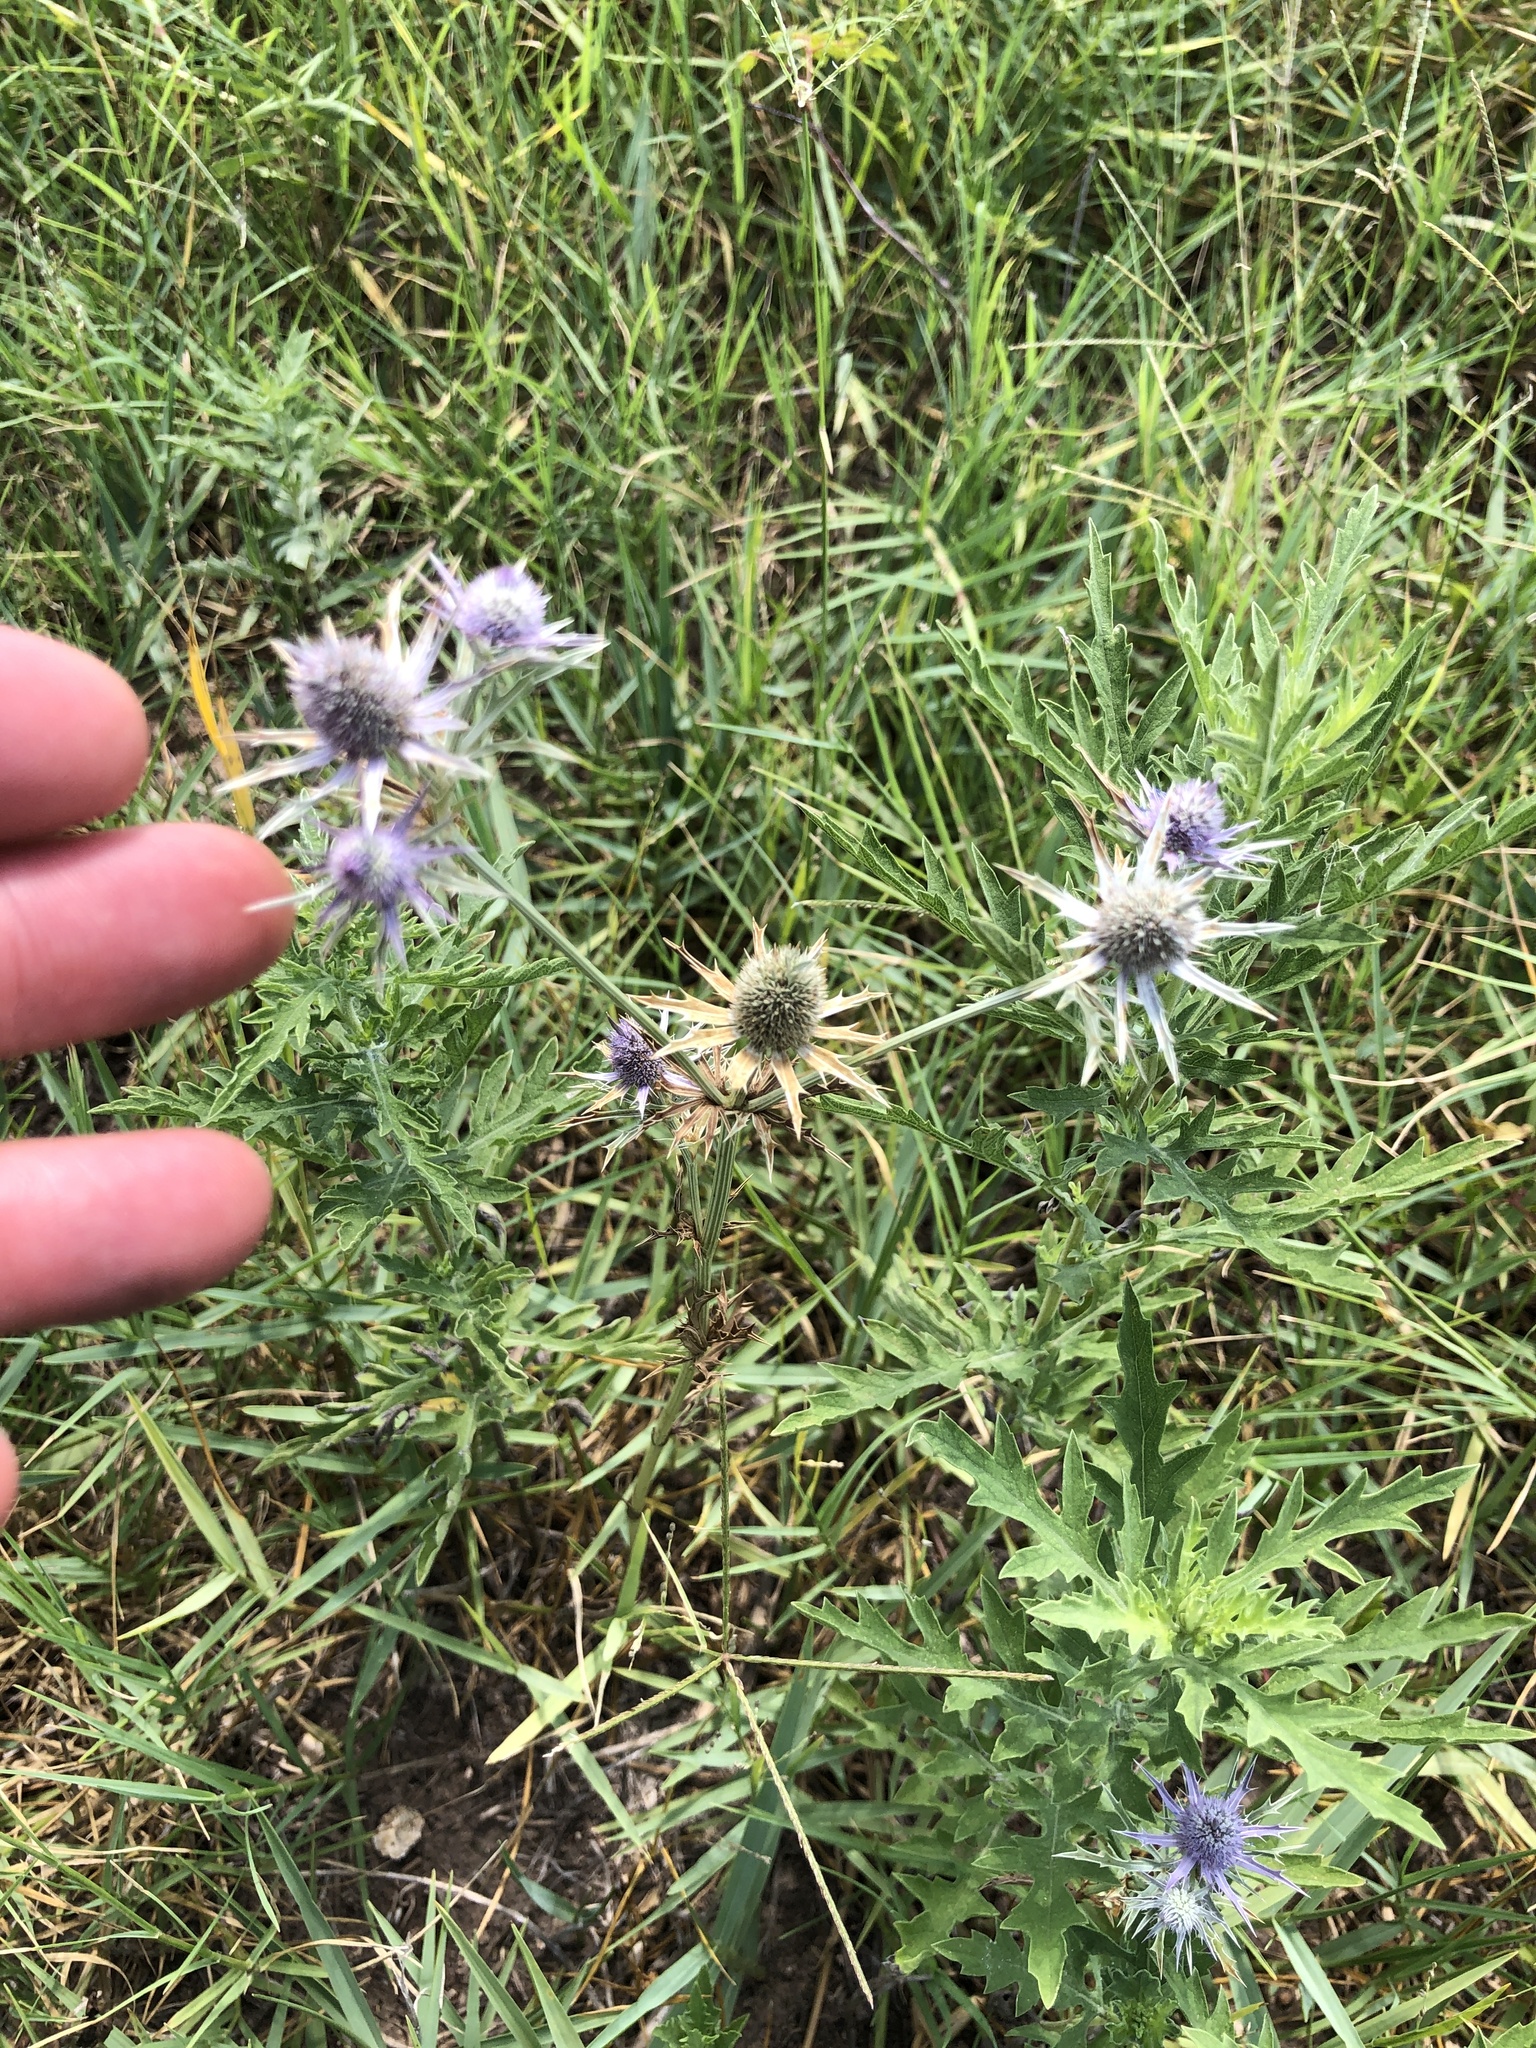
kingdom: Plantae
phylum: Tracheophyta
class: Magnoliopsida
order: Apiales
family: Apiaceae
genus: Eryngium
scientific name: Eryngium hookeri
